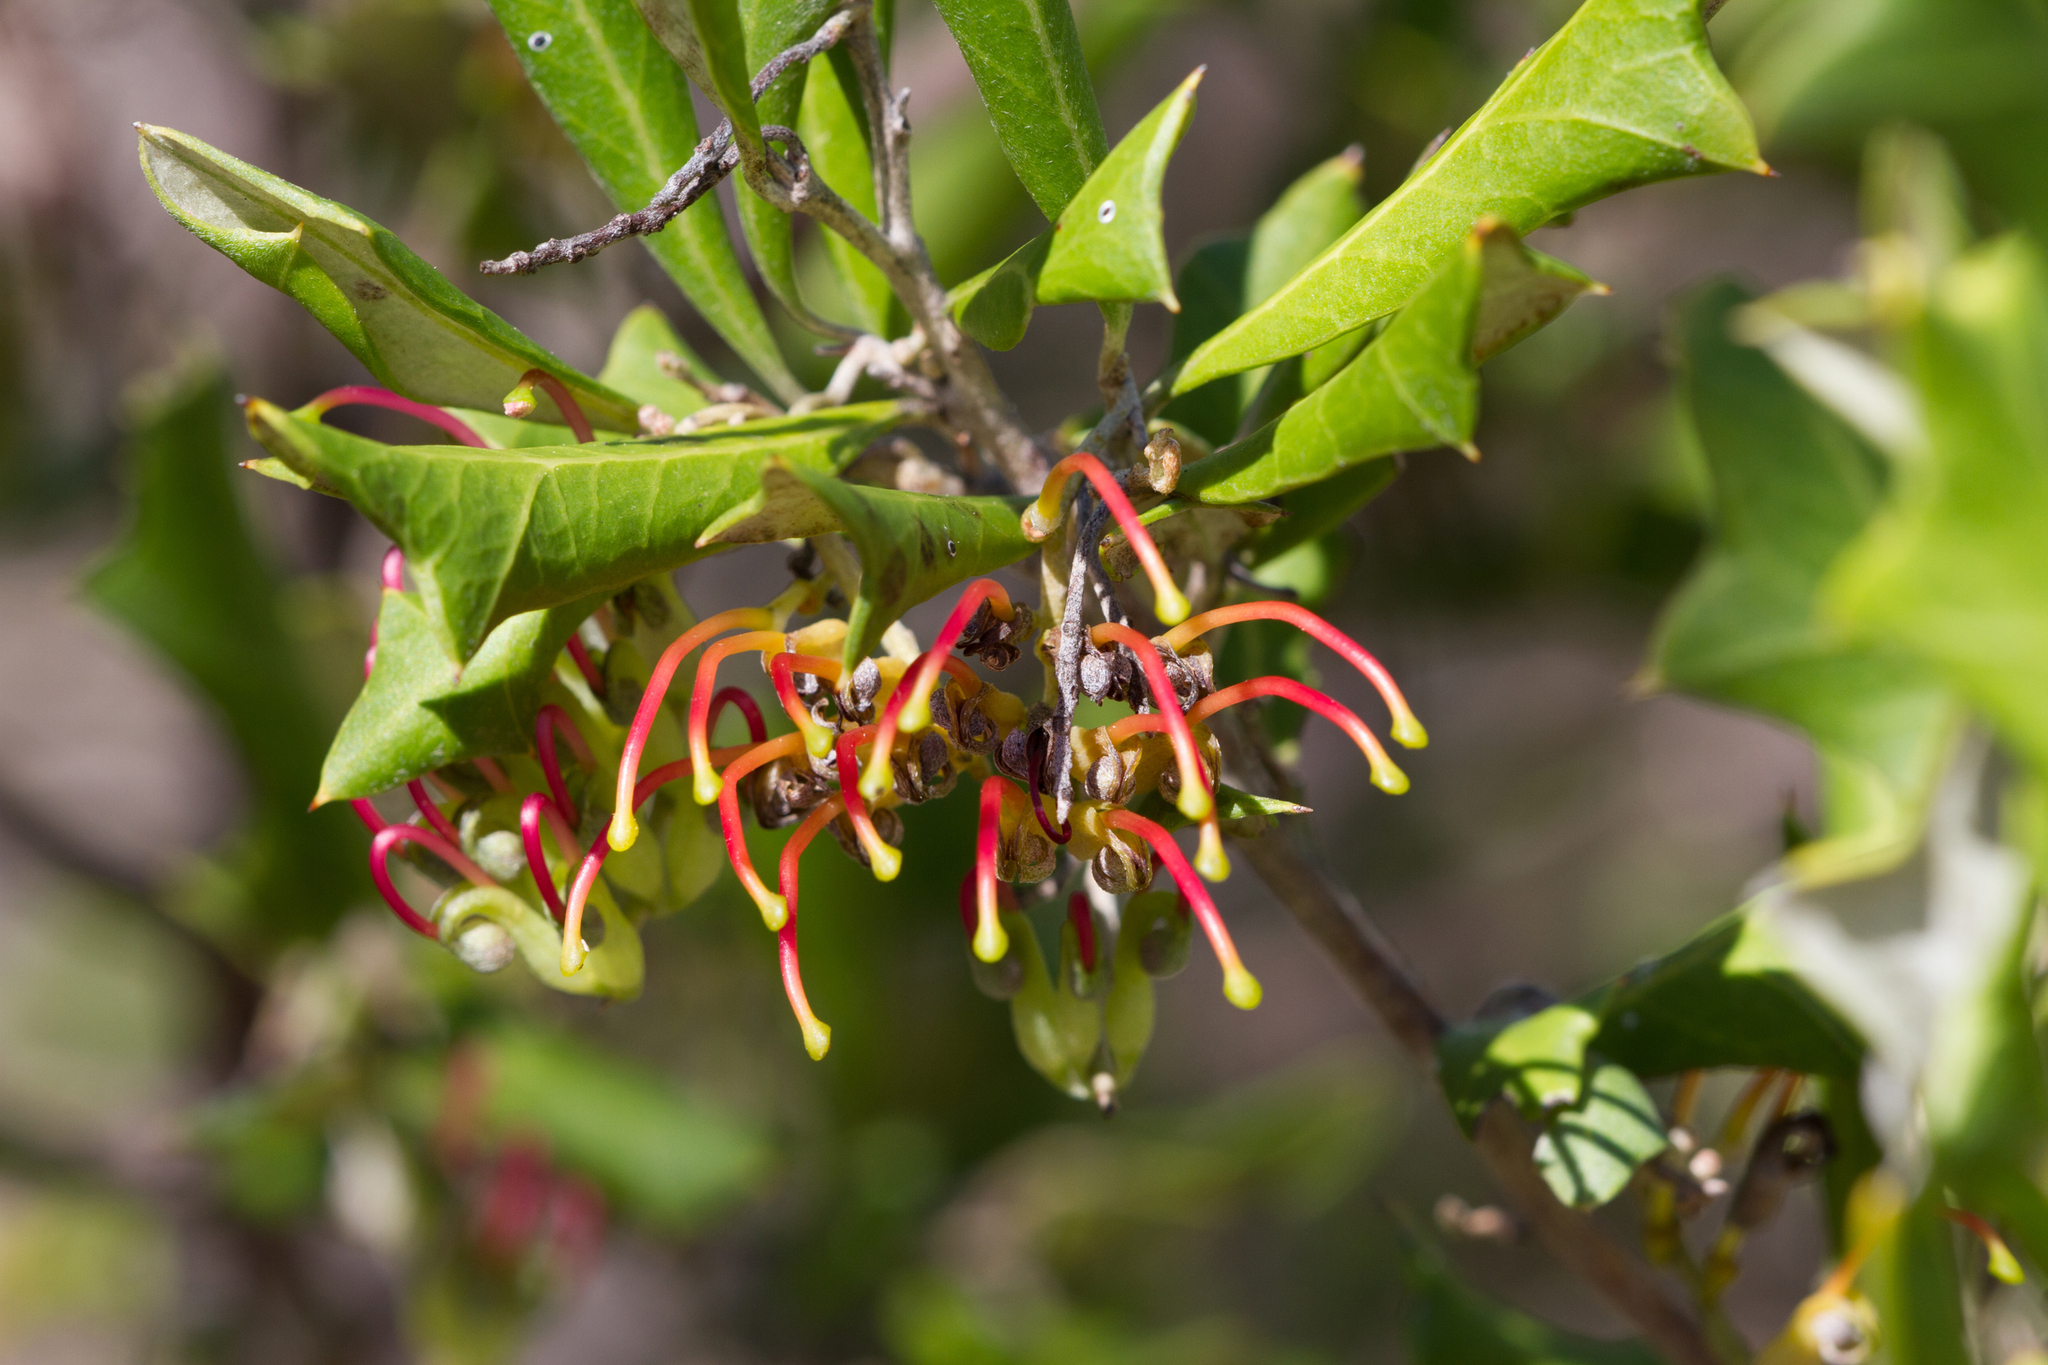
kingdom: Plantae
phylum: Tracheophyta
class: Magnoliopsida
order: Proteales
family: Proteaceae
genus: Grevillea
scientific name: Grevillea ilicifolia
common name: Holly grevillea
